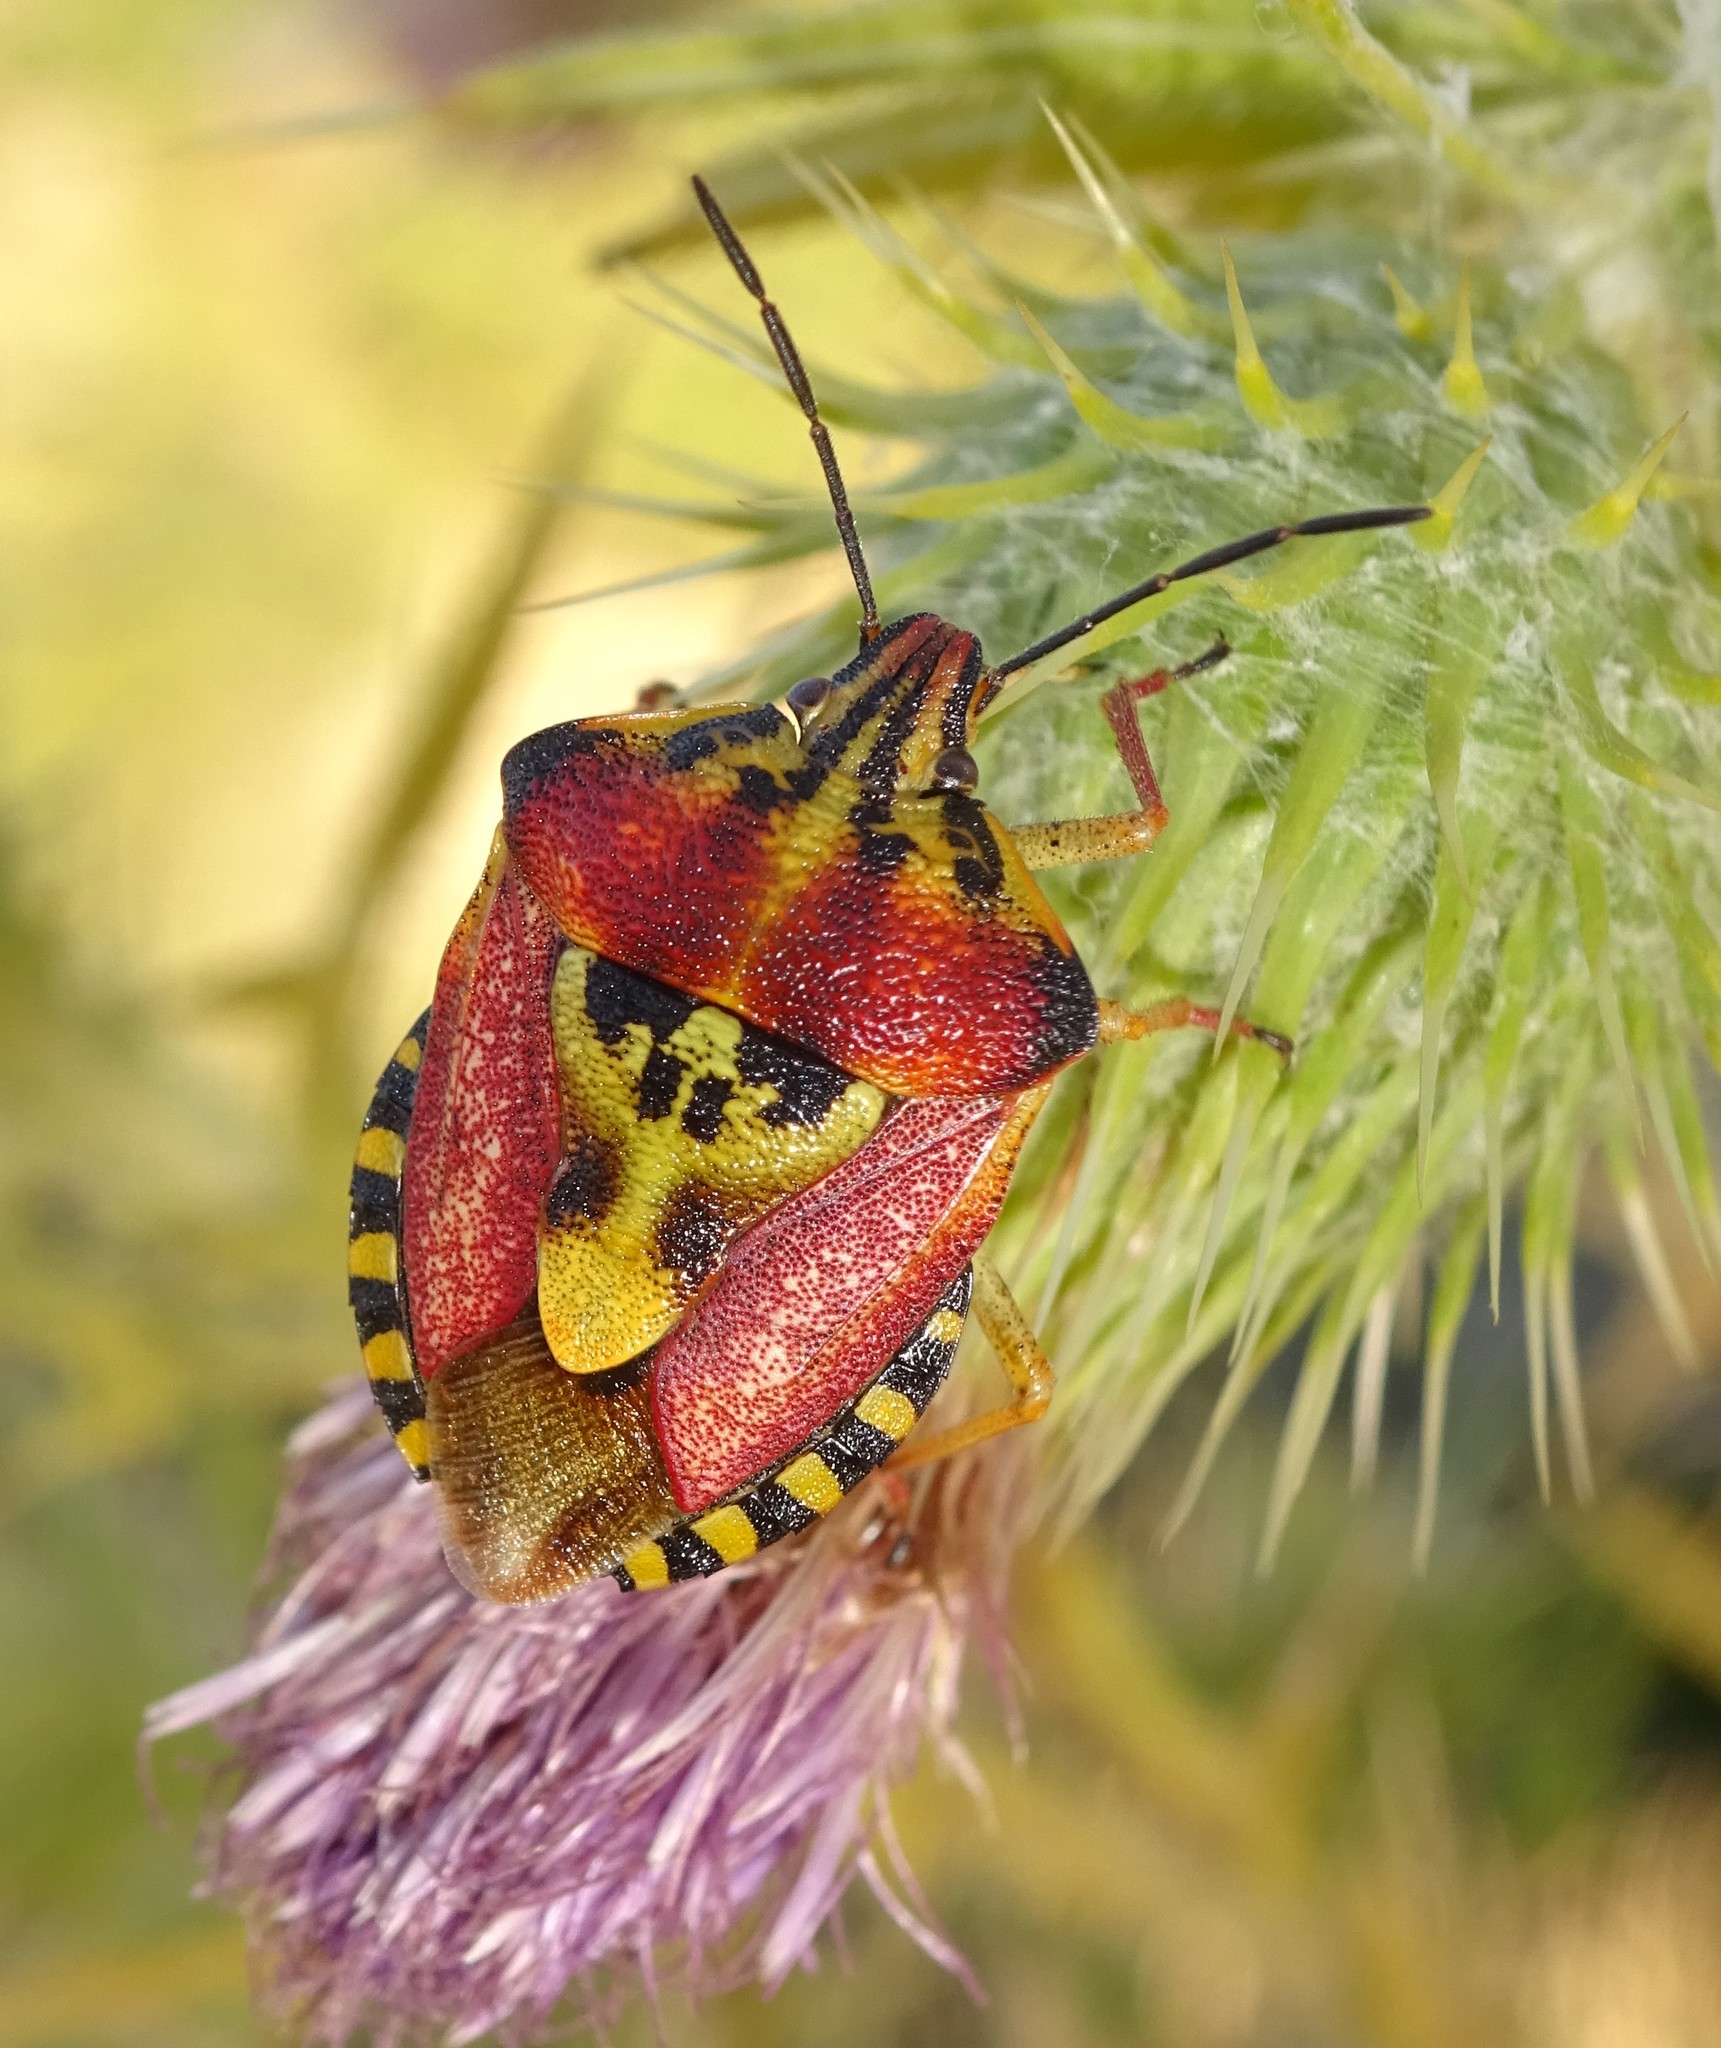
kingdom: Animalia
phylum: Arthropoda
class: Insecta
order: Hemiptera
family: Pentatomidae
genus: Carpocoris
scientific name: Carpocoris purpureipennis
